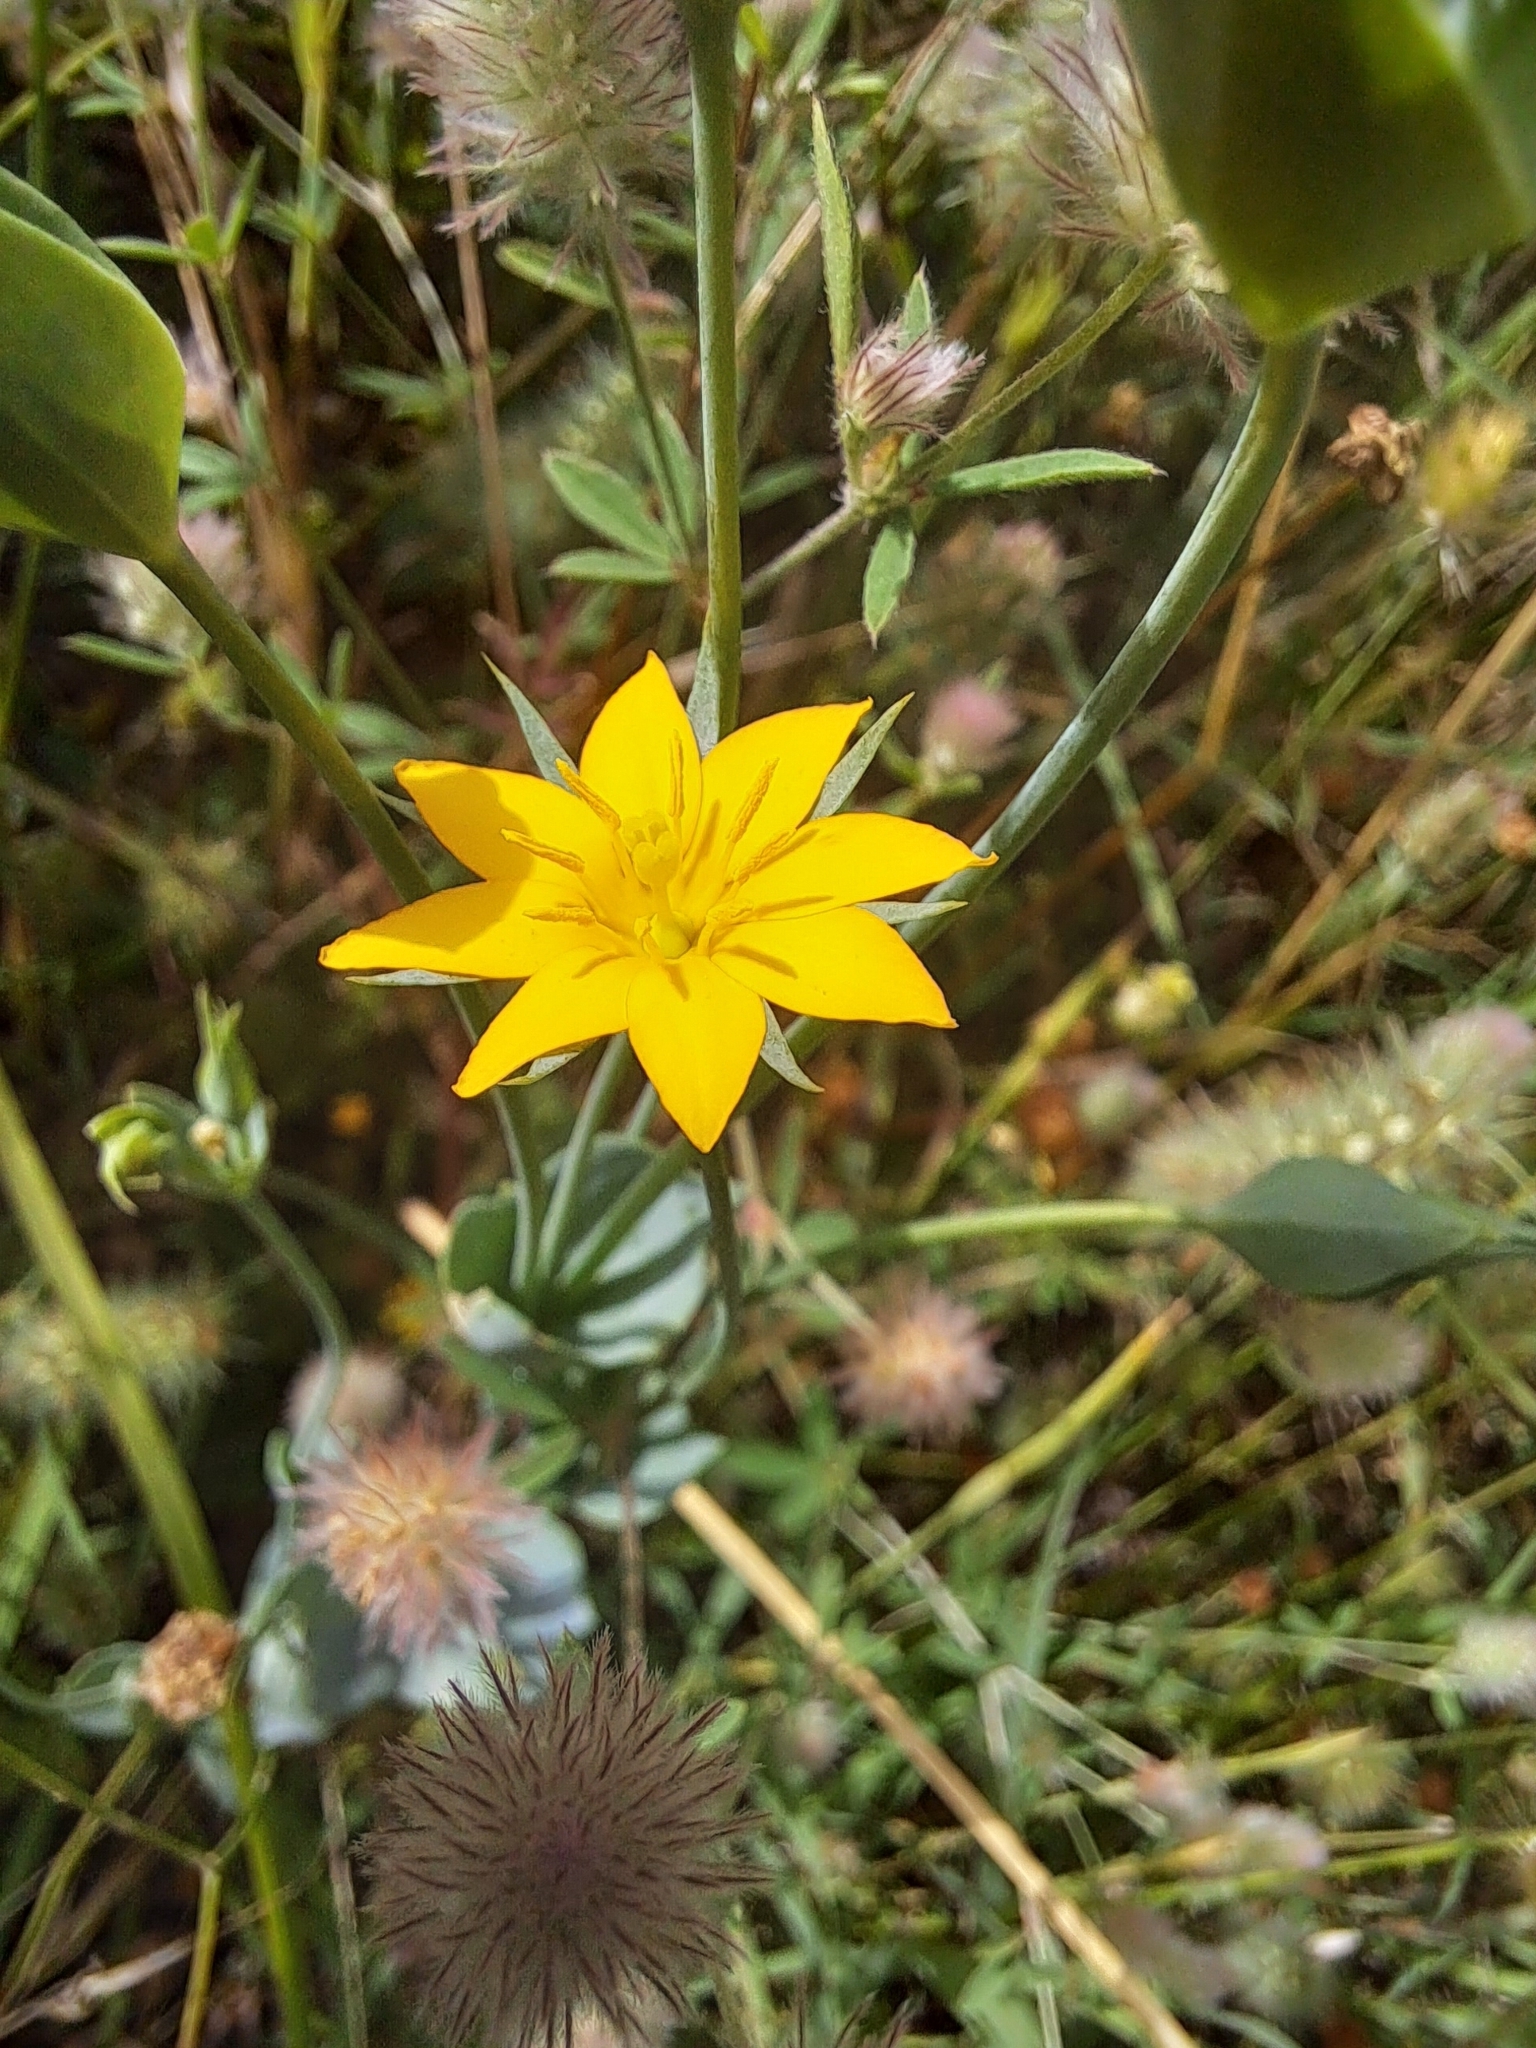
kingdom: Plantae
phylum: Tracheophyta
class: Magnoliopsida
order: Gentianales
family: Gentianaceae
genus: Blackstonia
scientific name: Blackstonia perfoliata
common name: Yellow-wort
